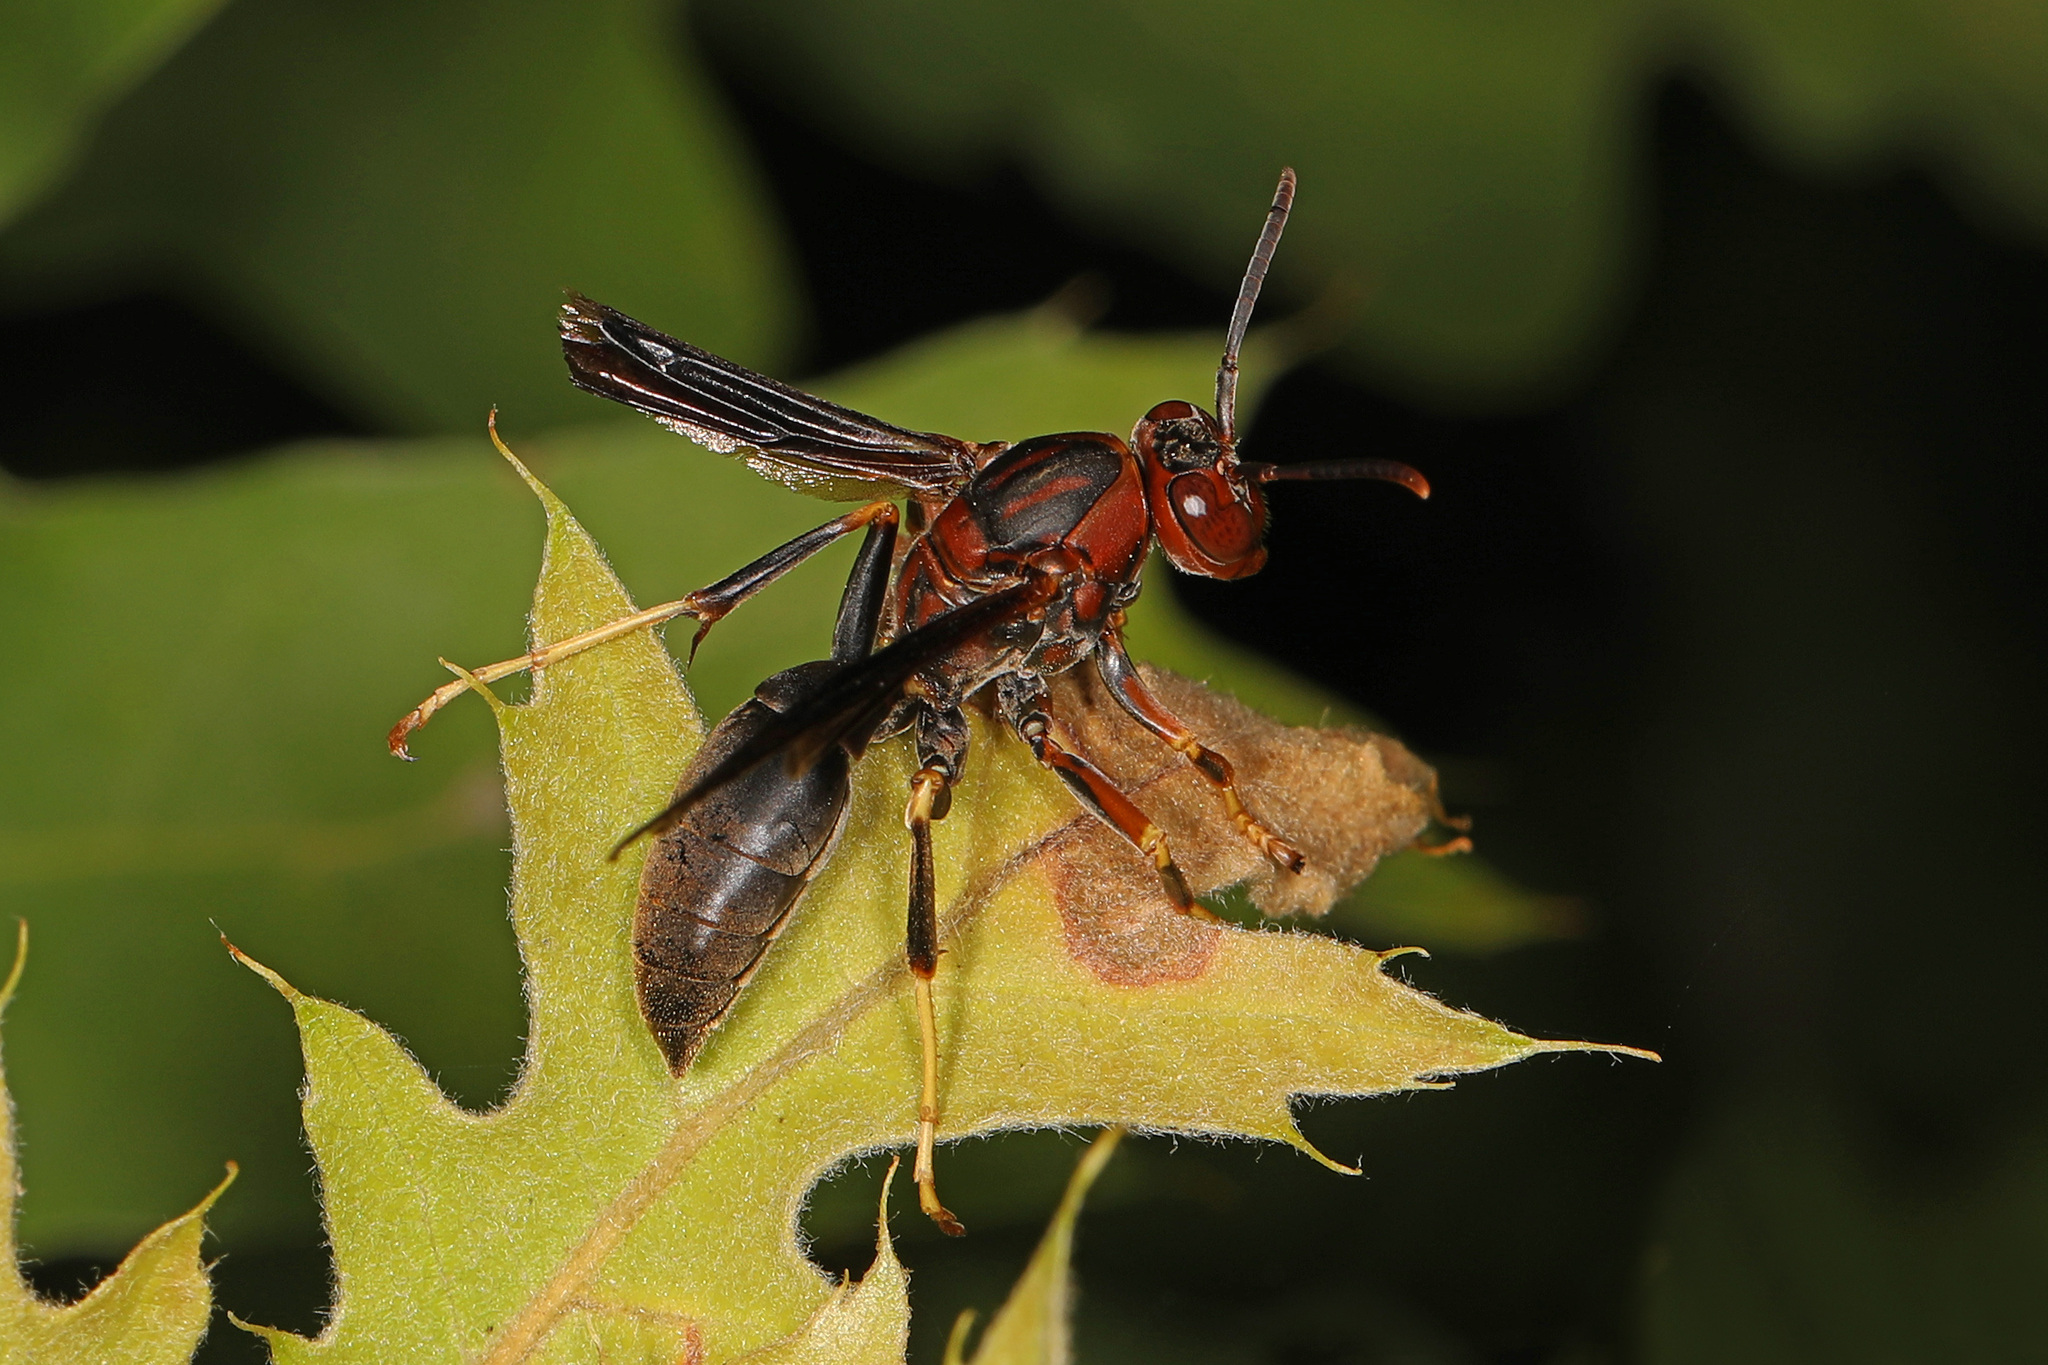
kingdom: Animalia
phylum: Arthropoda
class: Insecta
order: Hymenoptera
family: Eumenidae
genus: Polistes
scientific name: Polistes metricus
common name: Metric paper wasp
